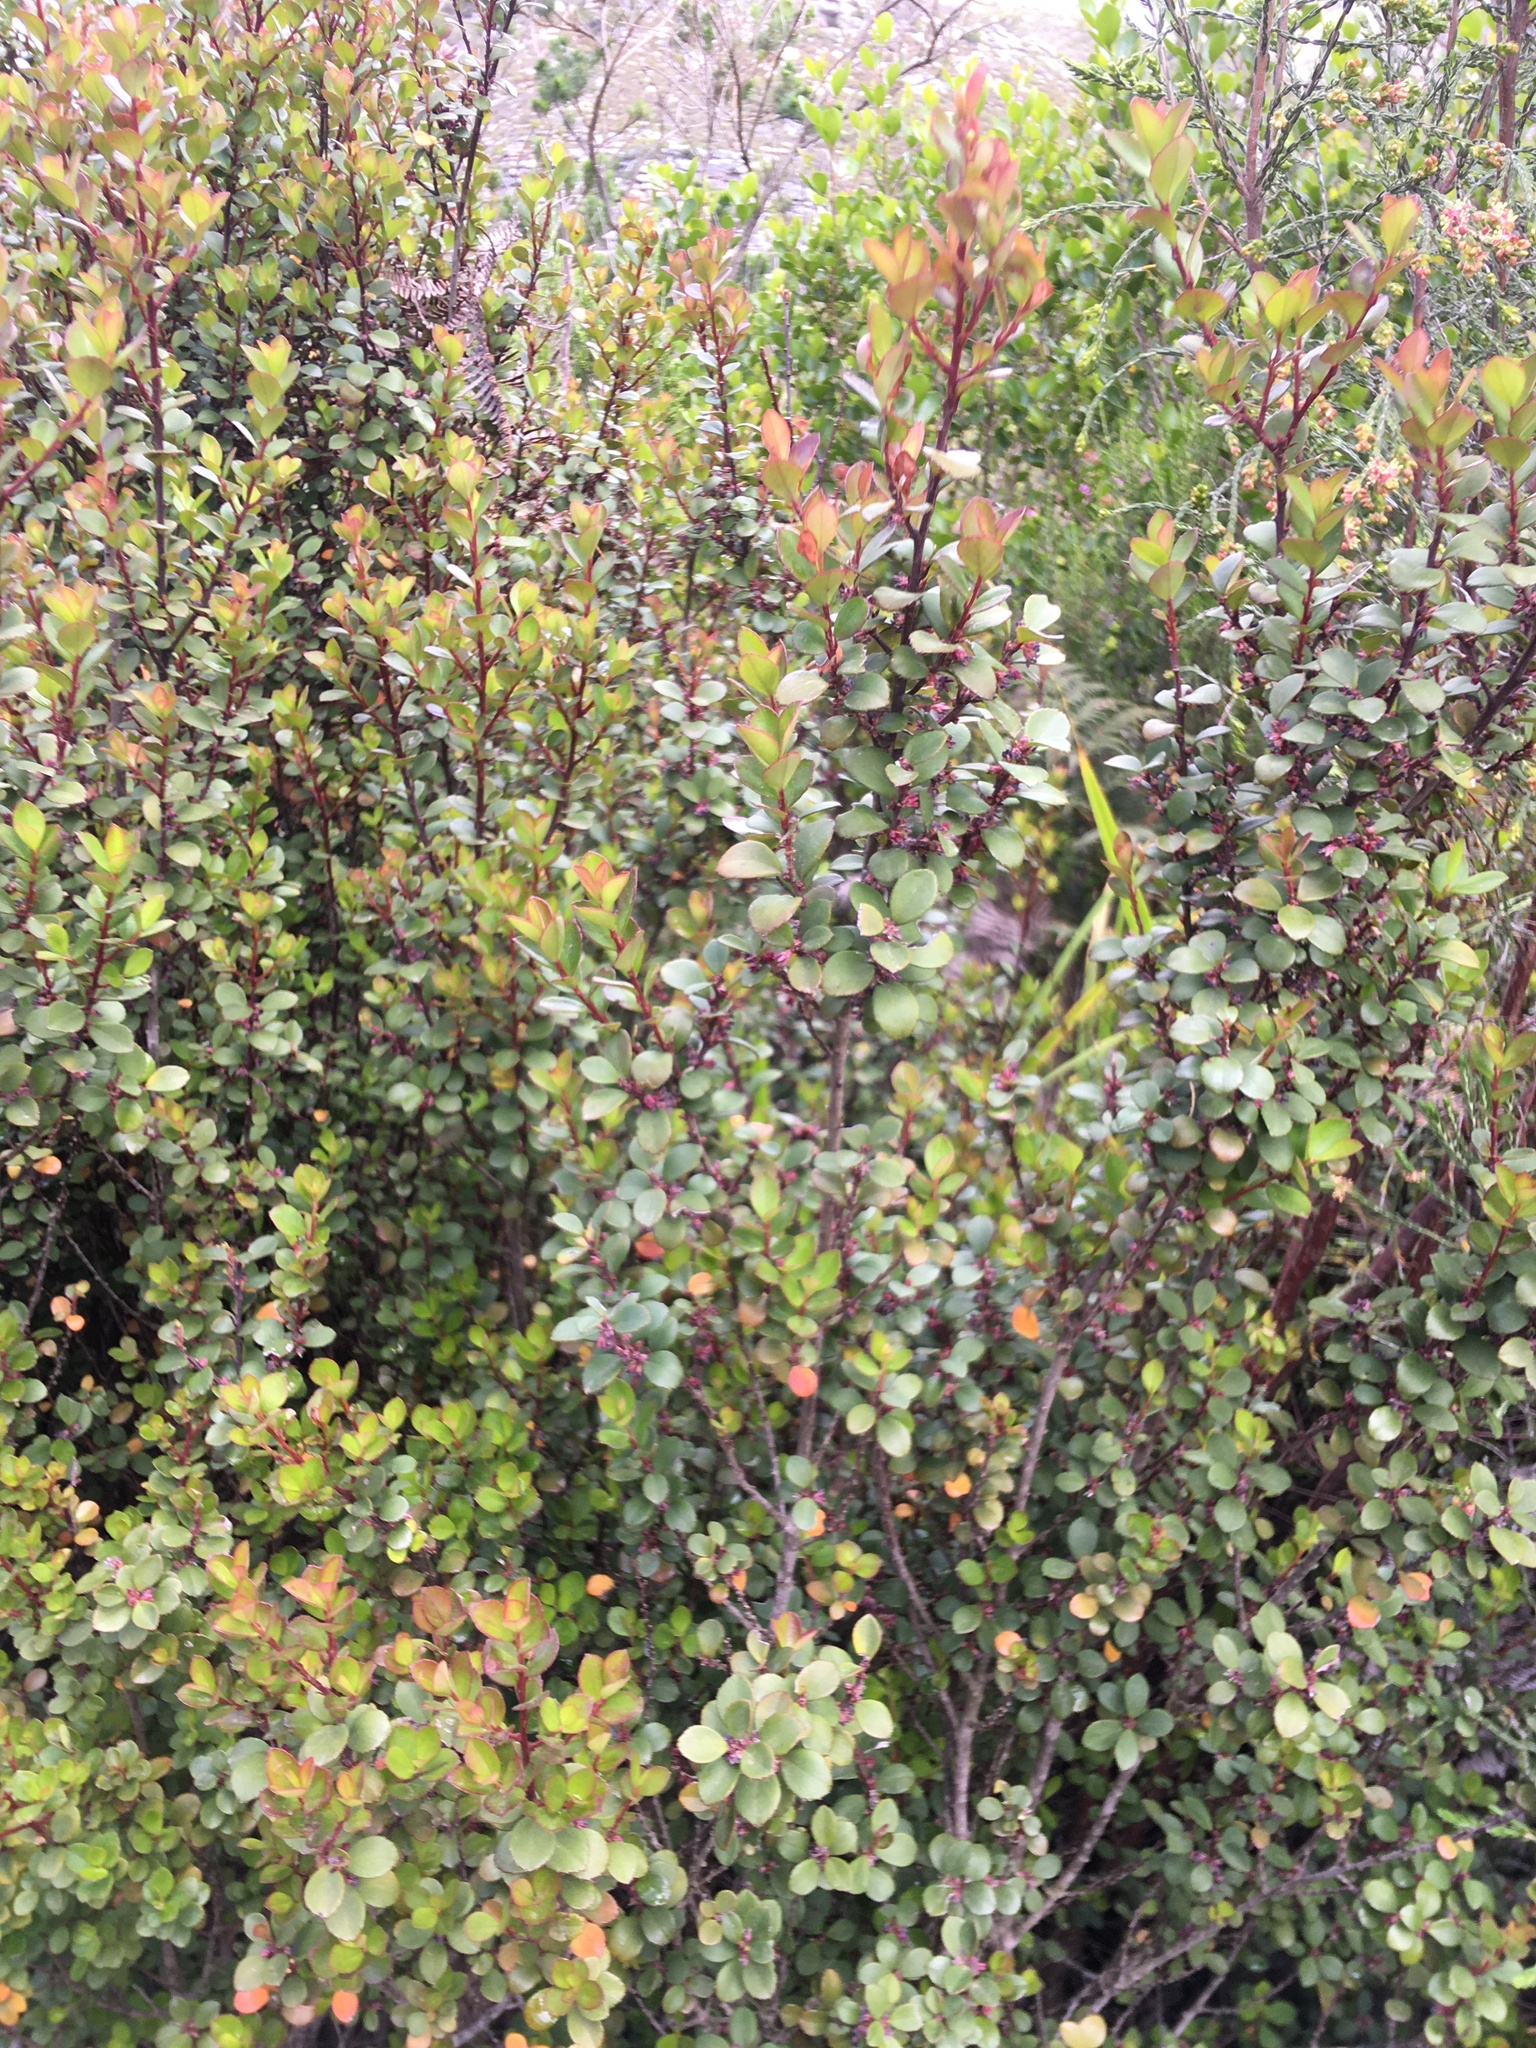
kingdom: Plantae
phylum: Tracheophyta
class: Magnoliopsida
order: Ericales
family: Primulaceae
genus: Myrsine
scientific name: Myrsine africana
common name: African-boxwood
